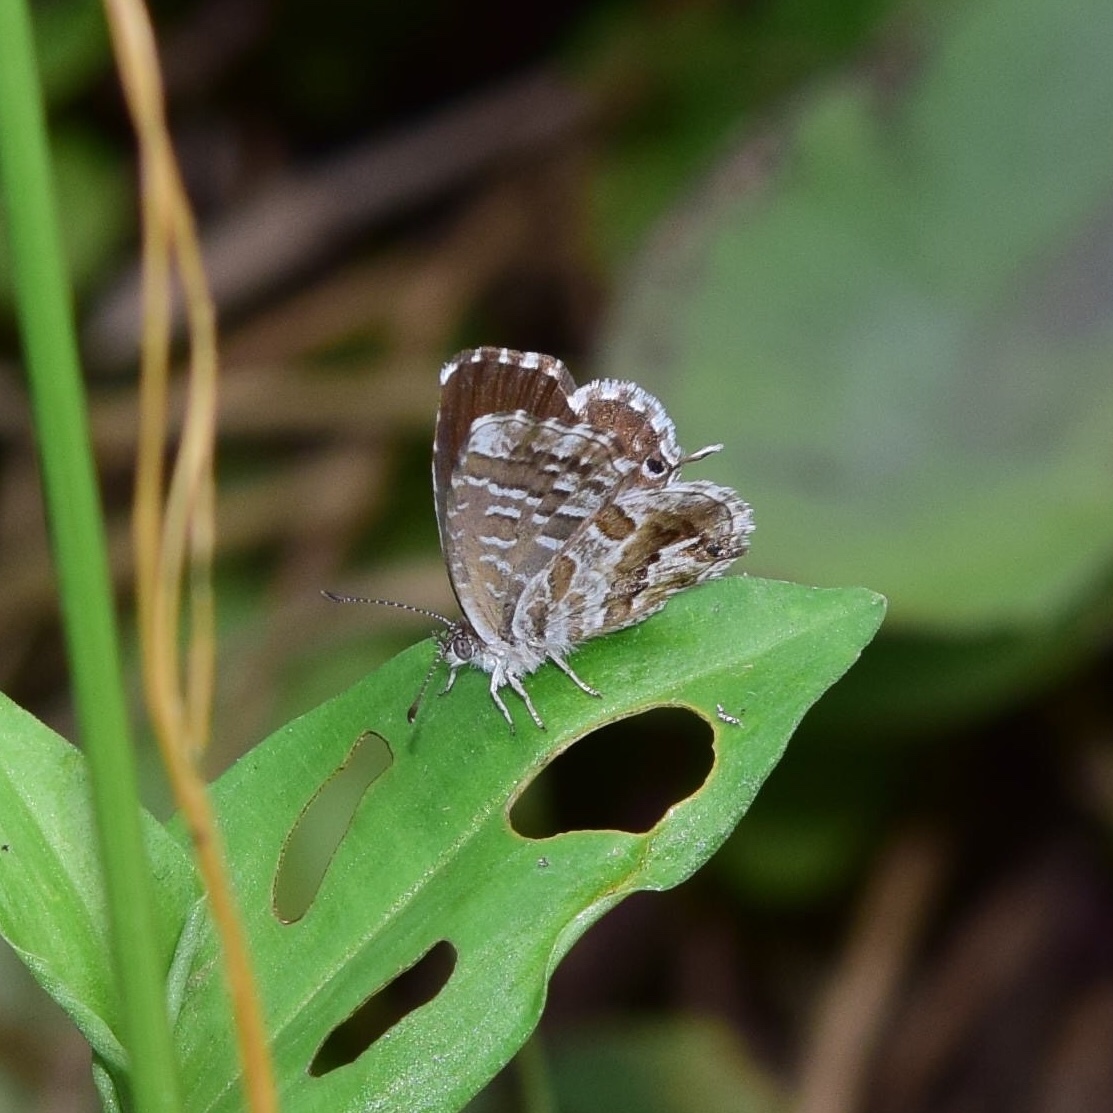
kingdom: Animalia
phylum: Arthropoda
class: Insecta
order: Lepidoptera
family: Lycaenidae
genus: Cacyreus
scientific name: Cacyreus marshalli
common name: Geranium bronze
